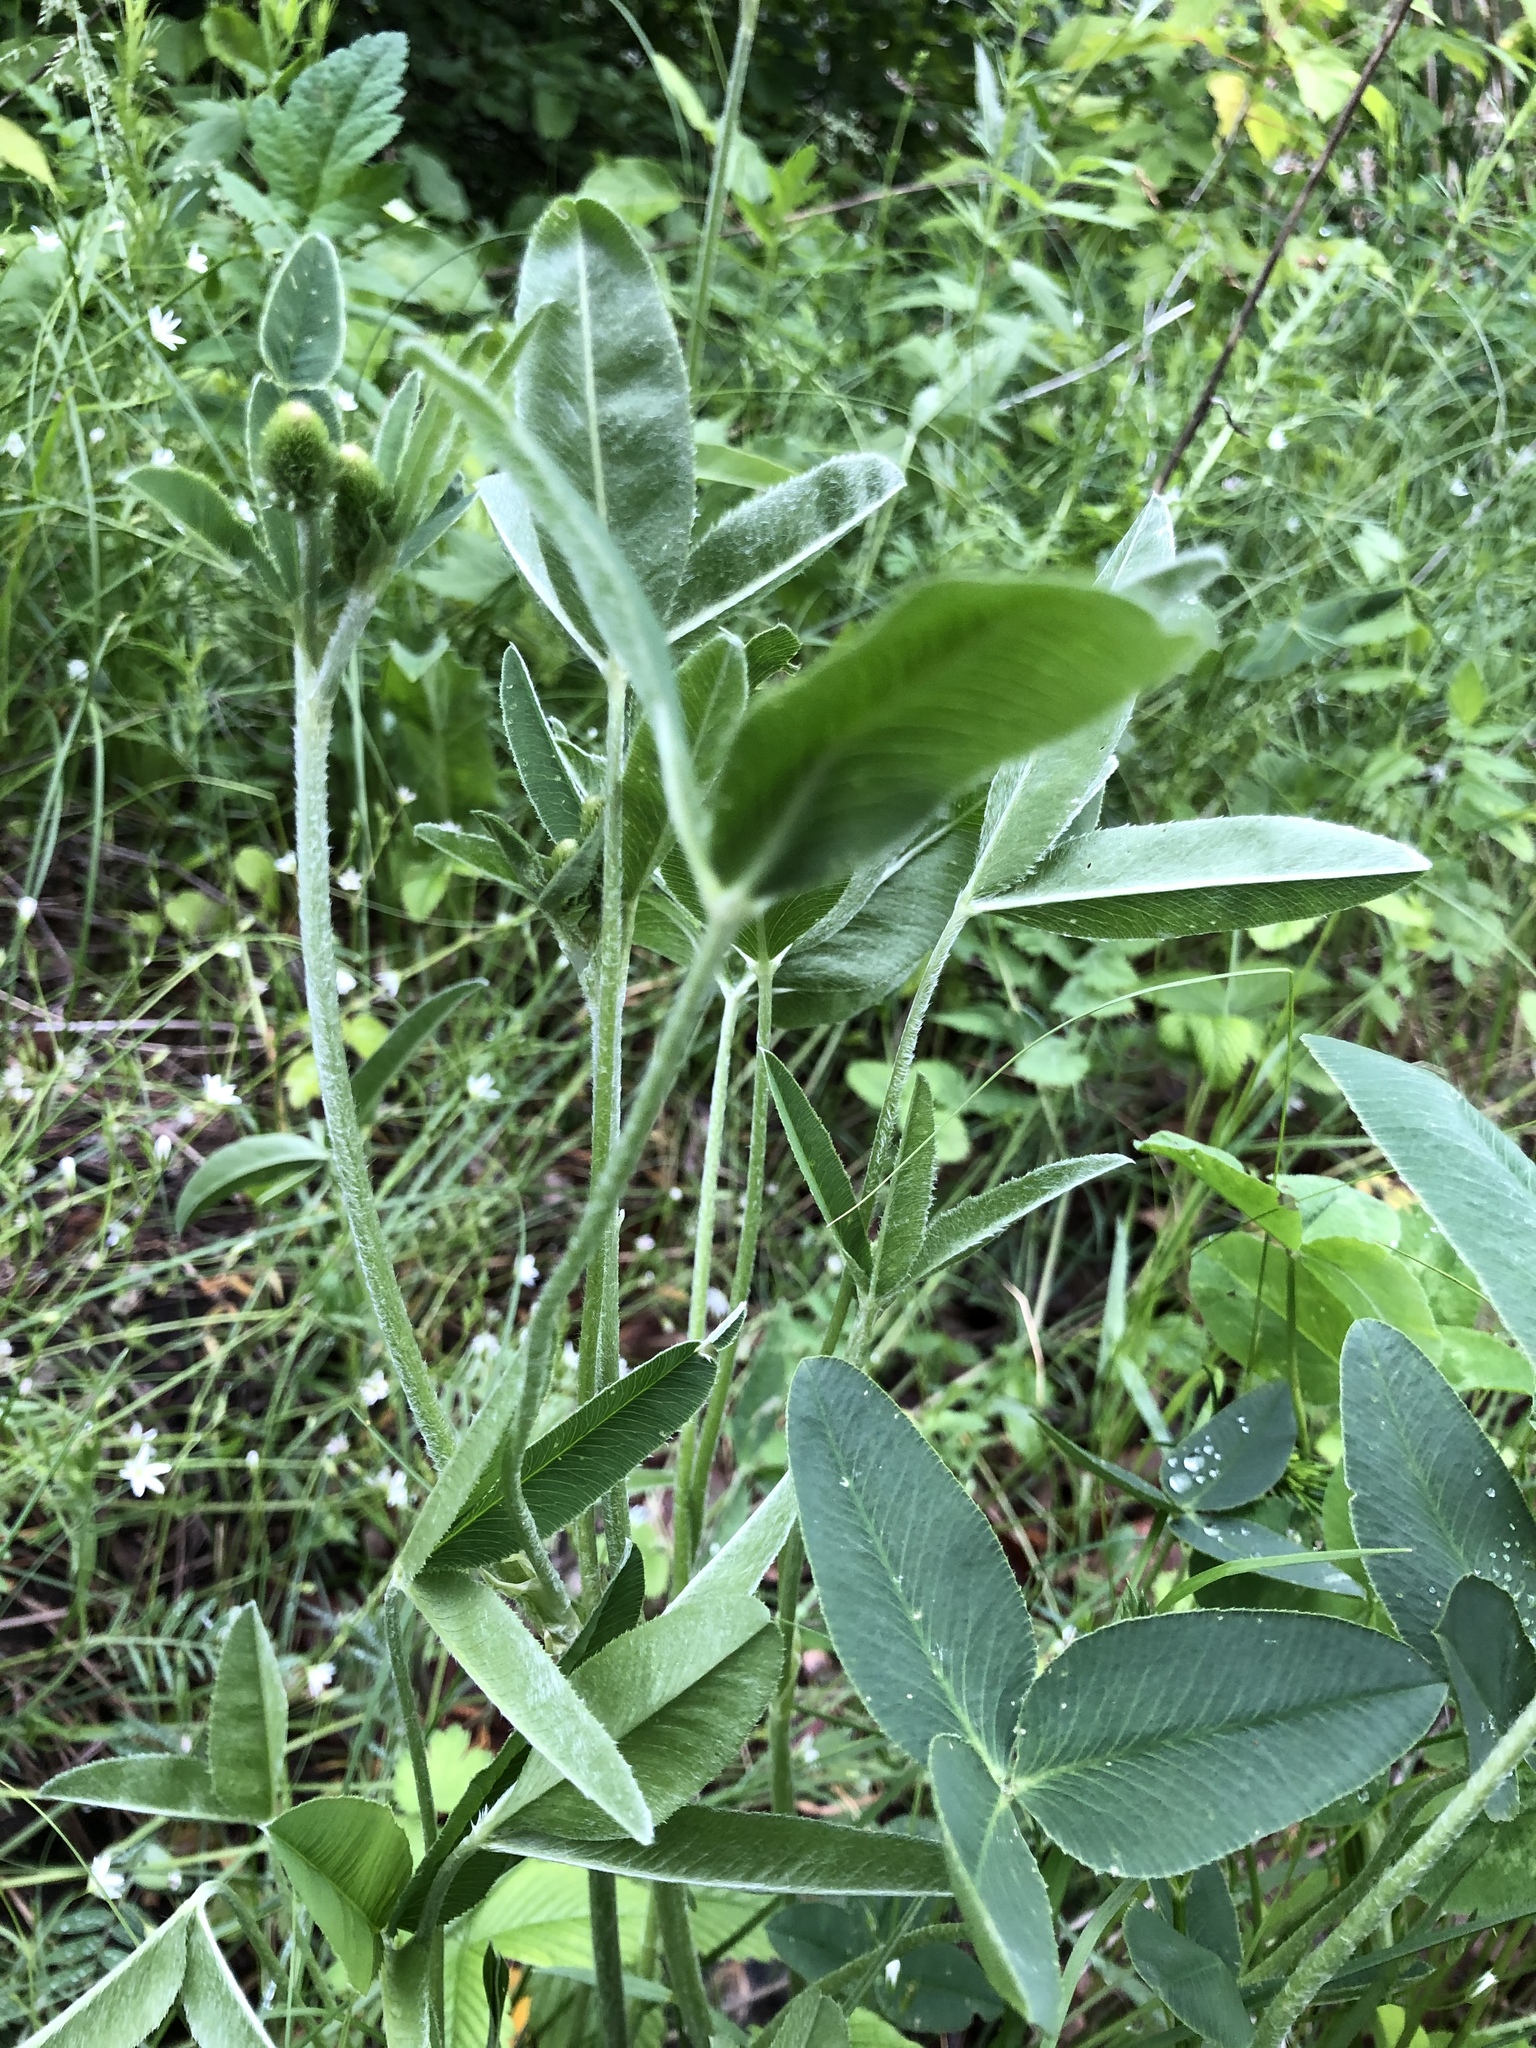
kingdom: Plantae
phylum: Tracheophyta
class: Magnoliopsida
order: Fabales
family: Fabaceae
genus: Trifolium
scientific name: Trifolium montanum
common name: Mountain clover
